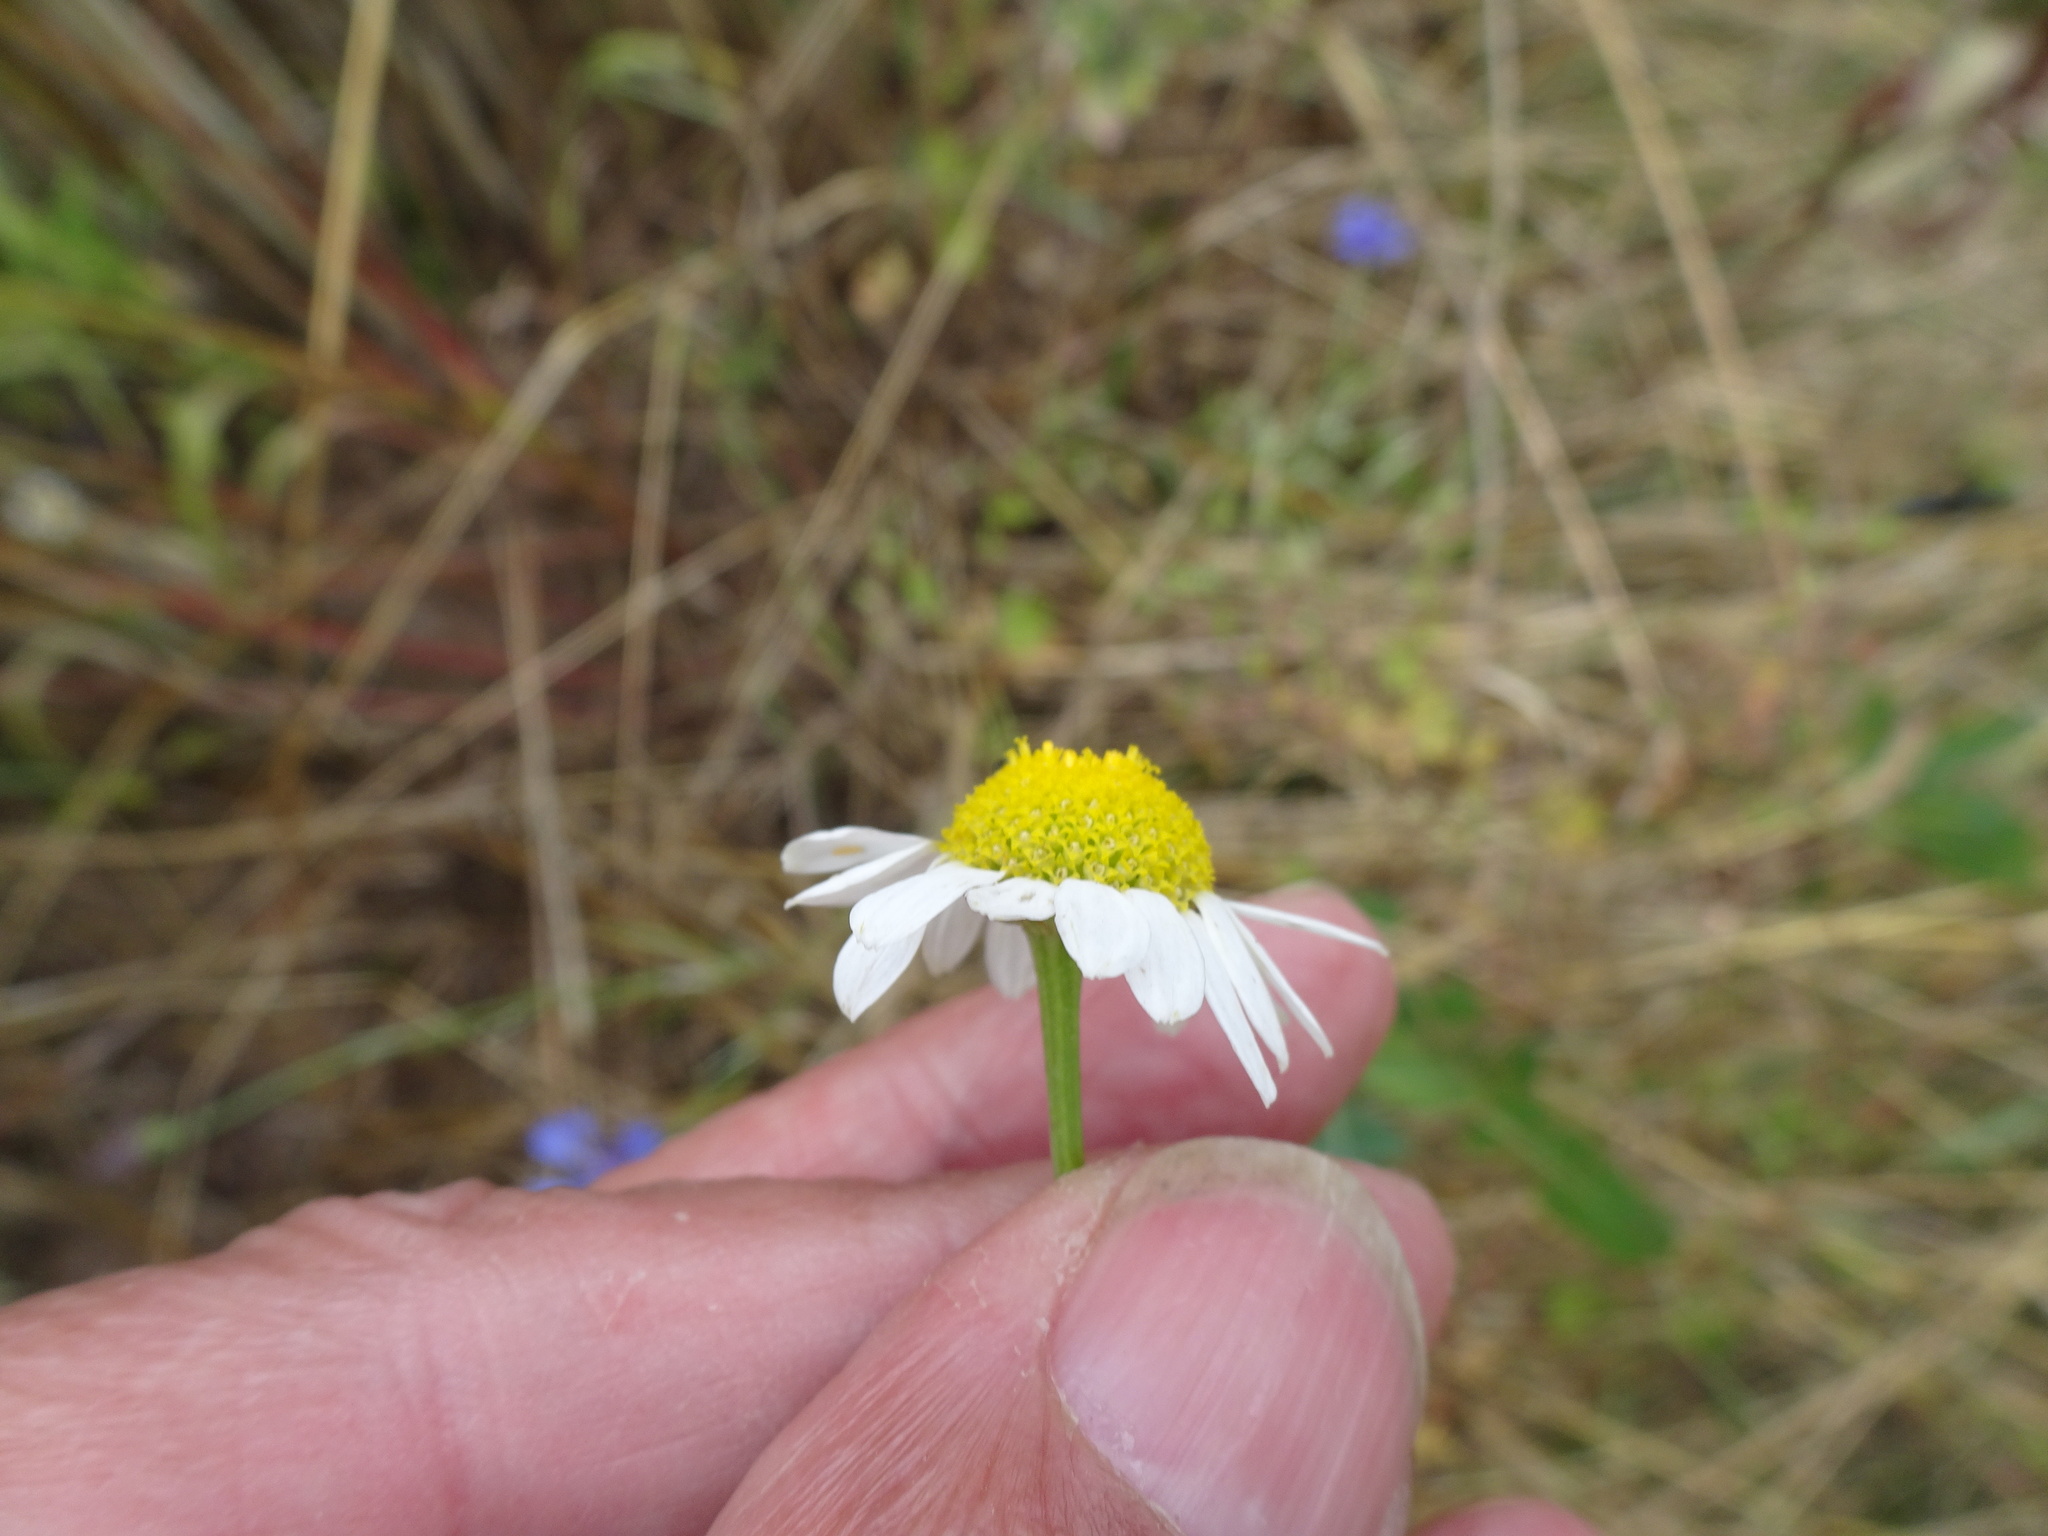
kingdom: Plantae
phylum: Tracheophyta
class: Magnoliopsida
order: Asterales
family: Asteraceae
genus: Matricaria
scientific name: Matricaria chamomilla
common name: Scented mayweed
